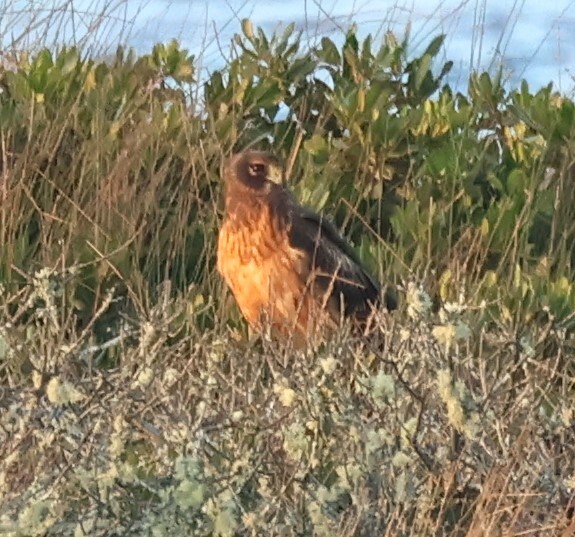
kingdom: Animalia
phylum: Chordata
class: Aves
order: Accipitriformes
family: Accipitridae
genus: Circus
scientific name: Circus cyaneus
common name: Hen harrier
